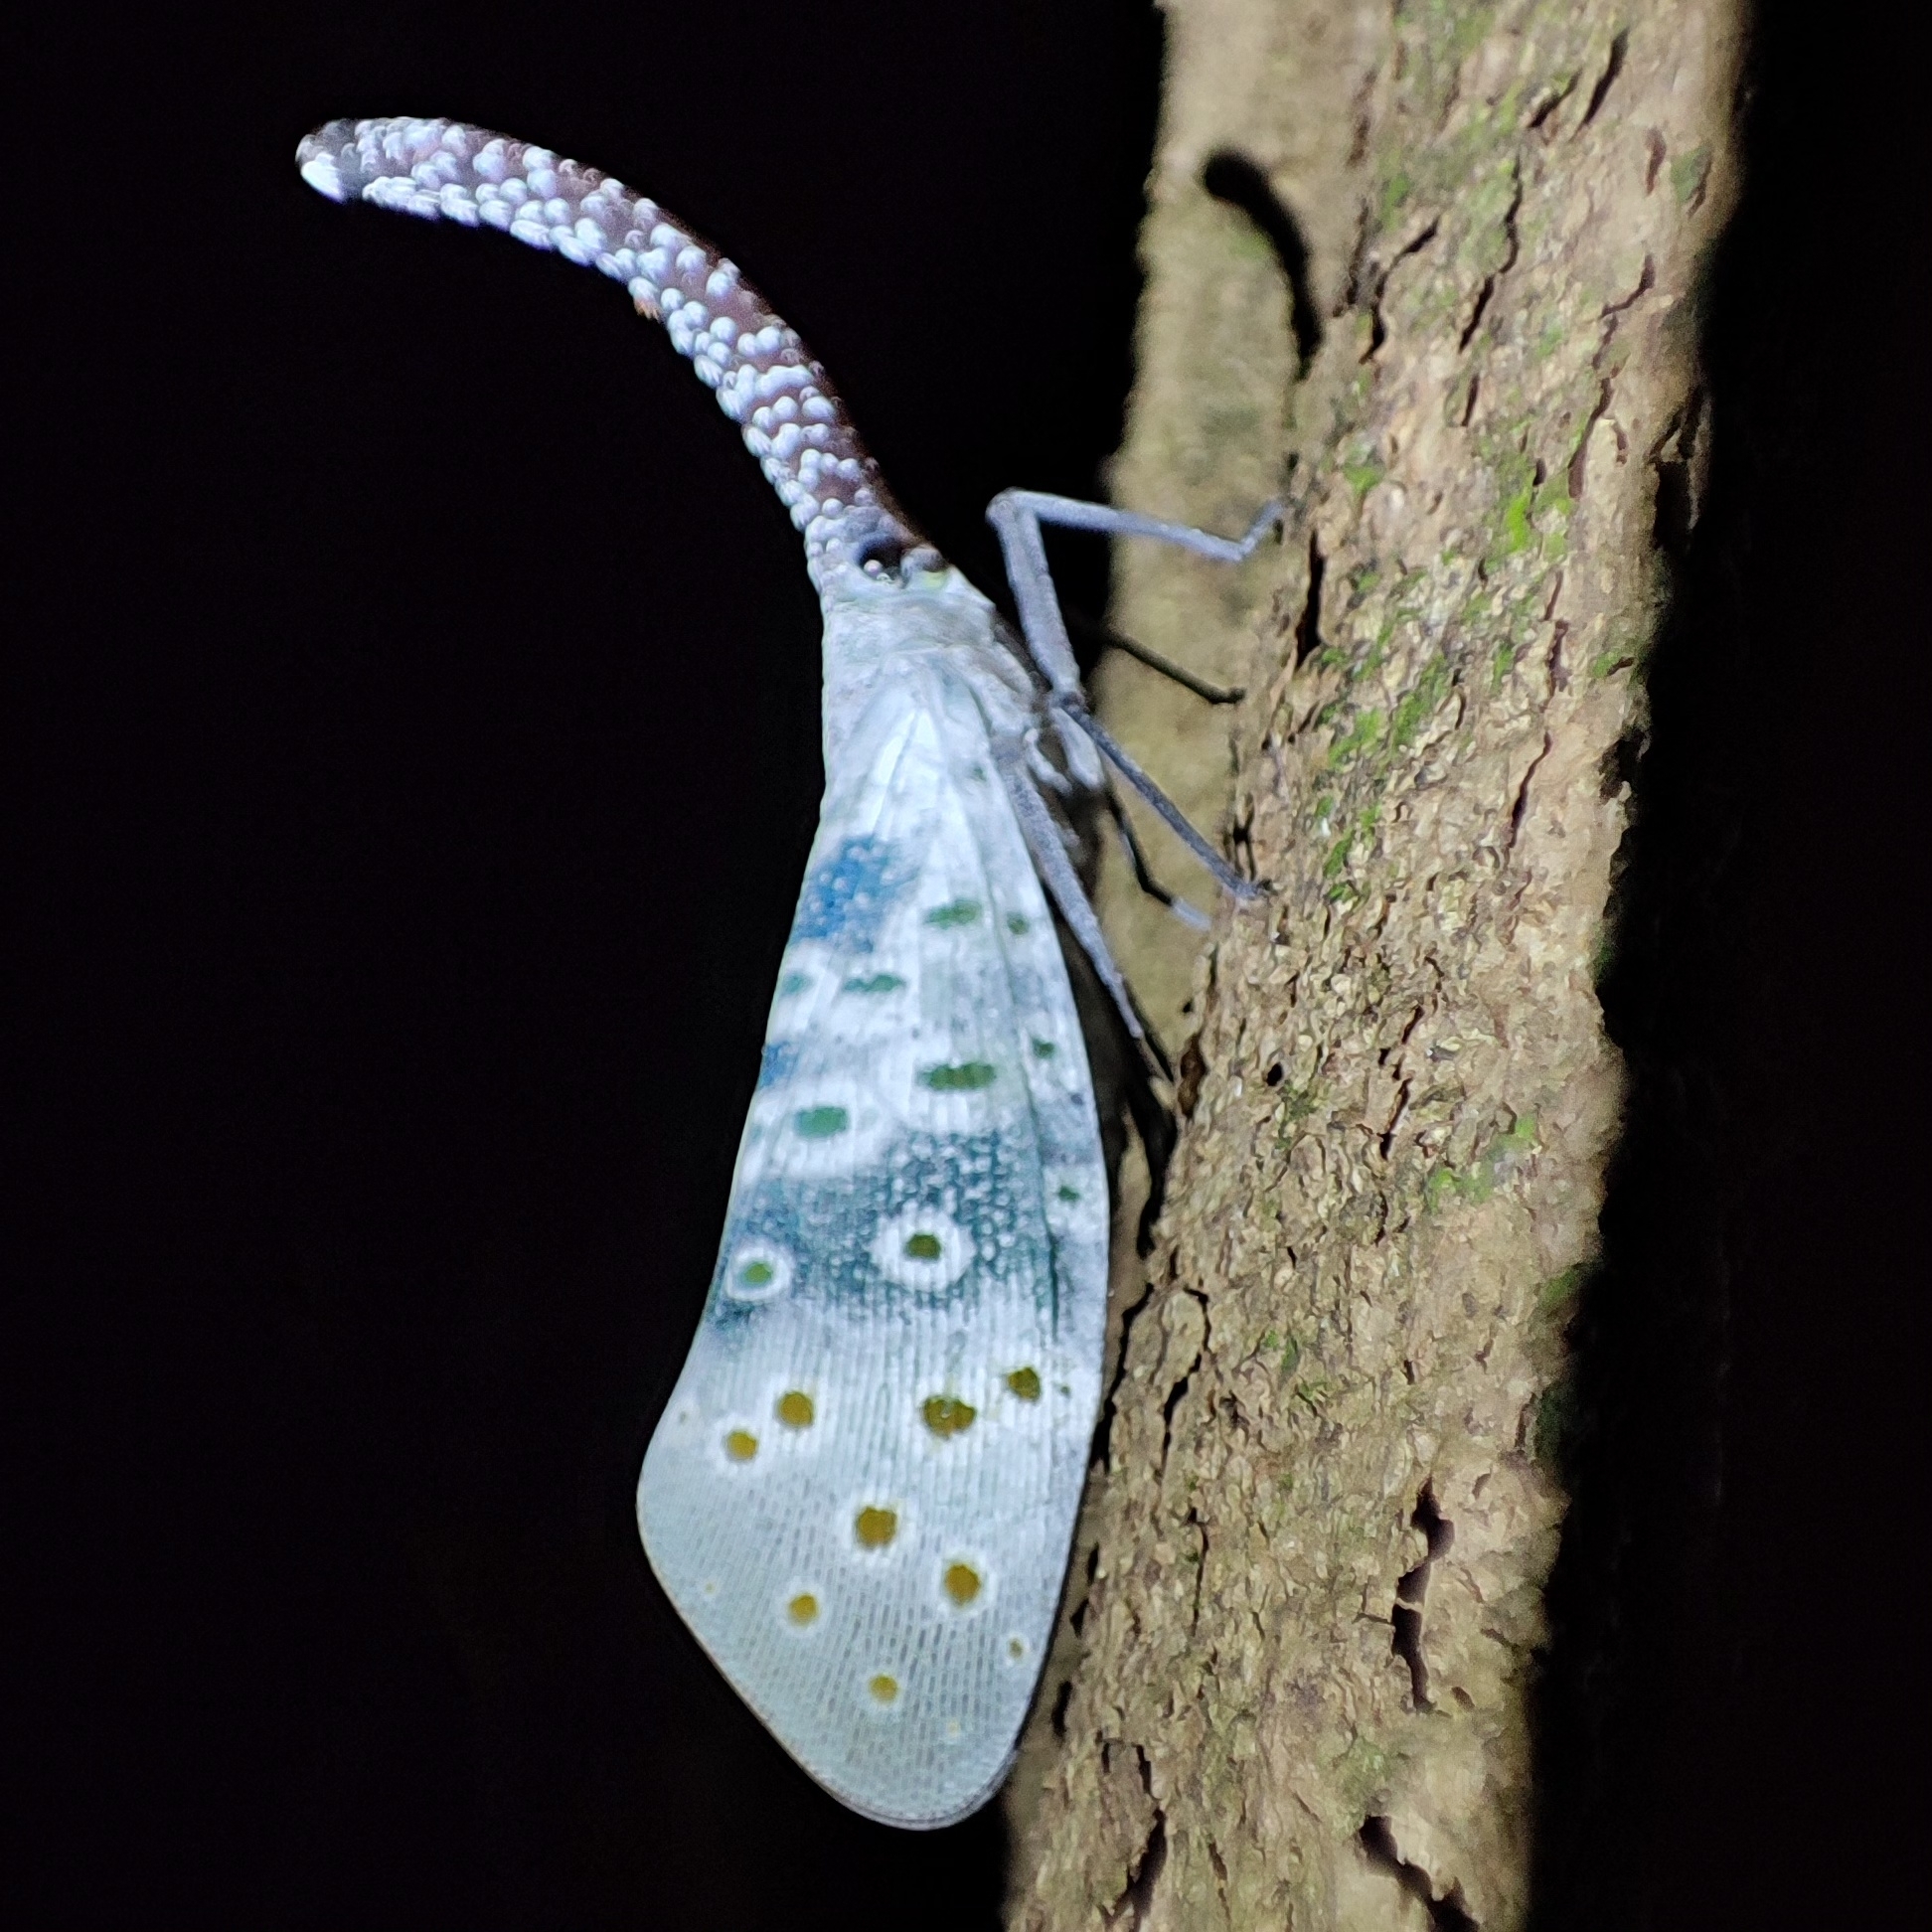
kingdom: Animalia
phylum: Arthropoda
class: Insecta
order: Hemiptera
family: Fulgoridae
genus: Pyrops
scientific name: Pyrops coelestinus
